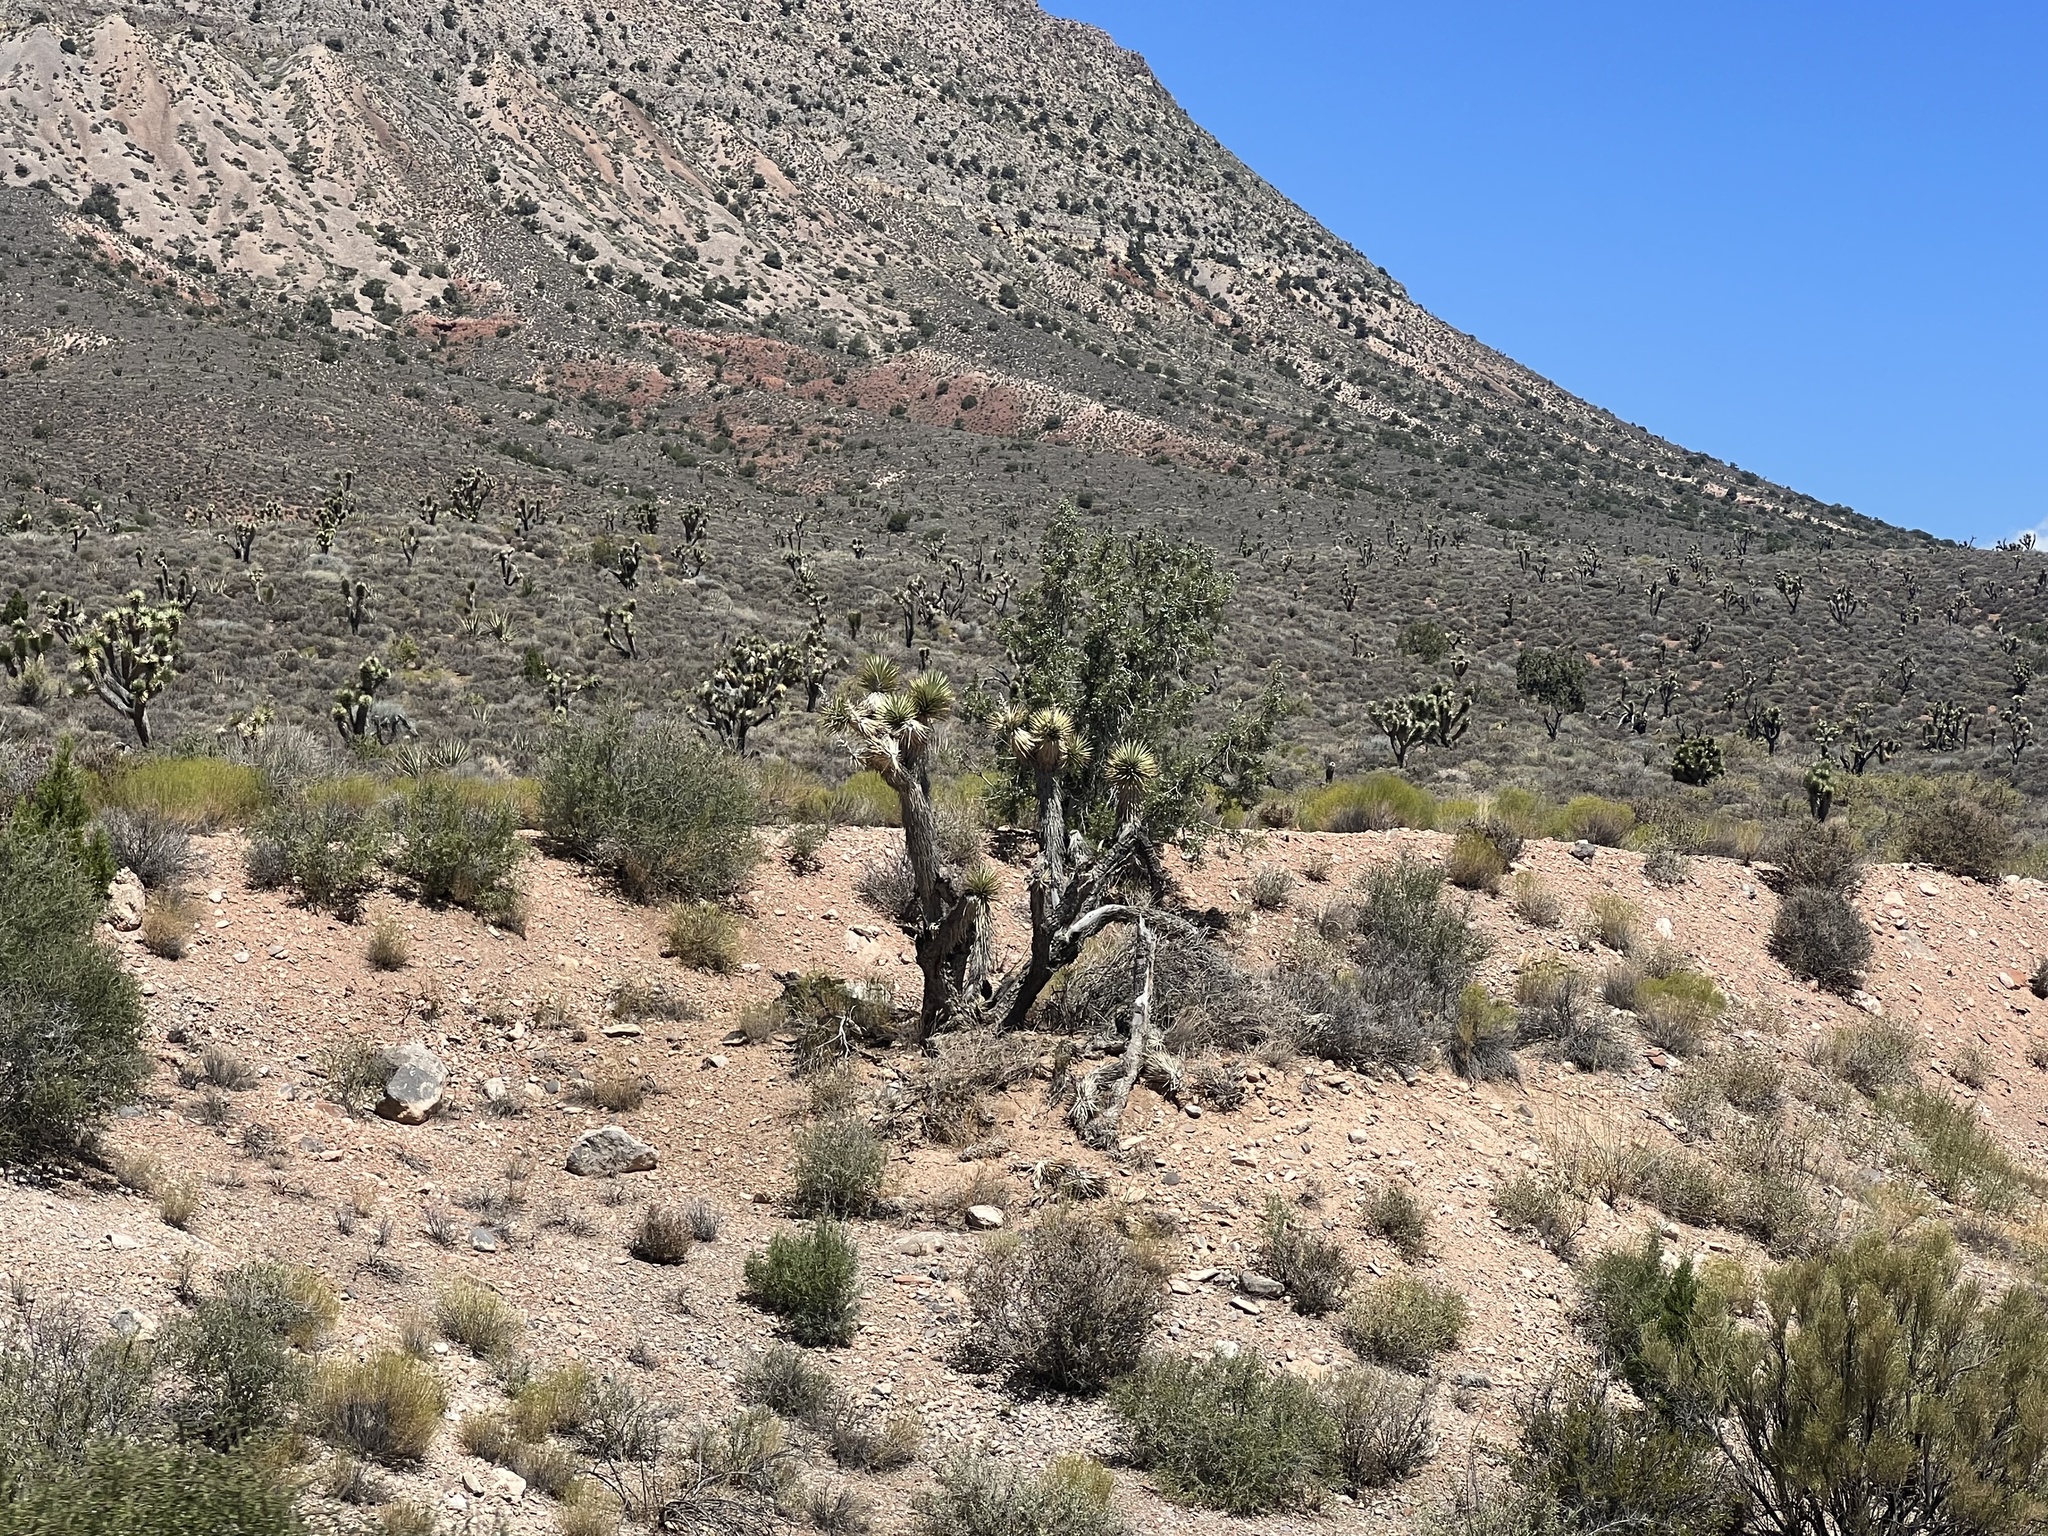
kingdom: Plantae
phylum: Tracheophyta
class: Liliopsida
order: Asparagales
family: Asparagaceae
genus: Yucca
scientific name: Yucca brevifolia
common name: Joshua tree
